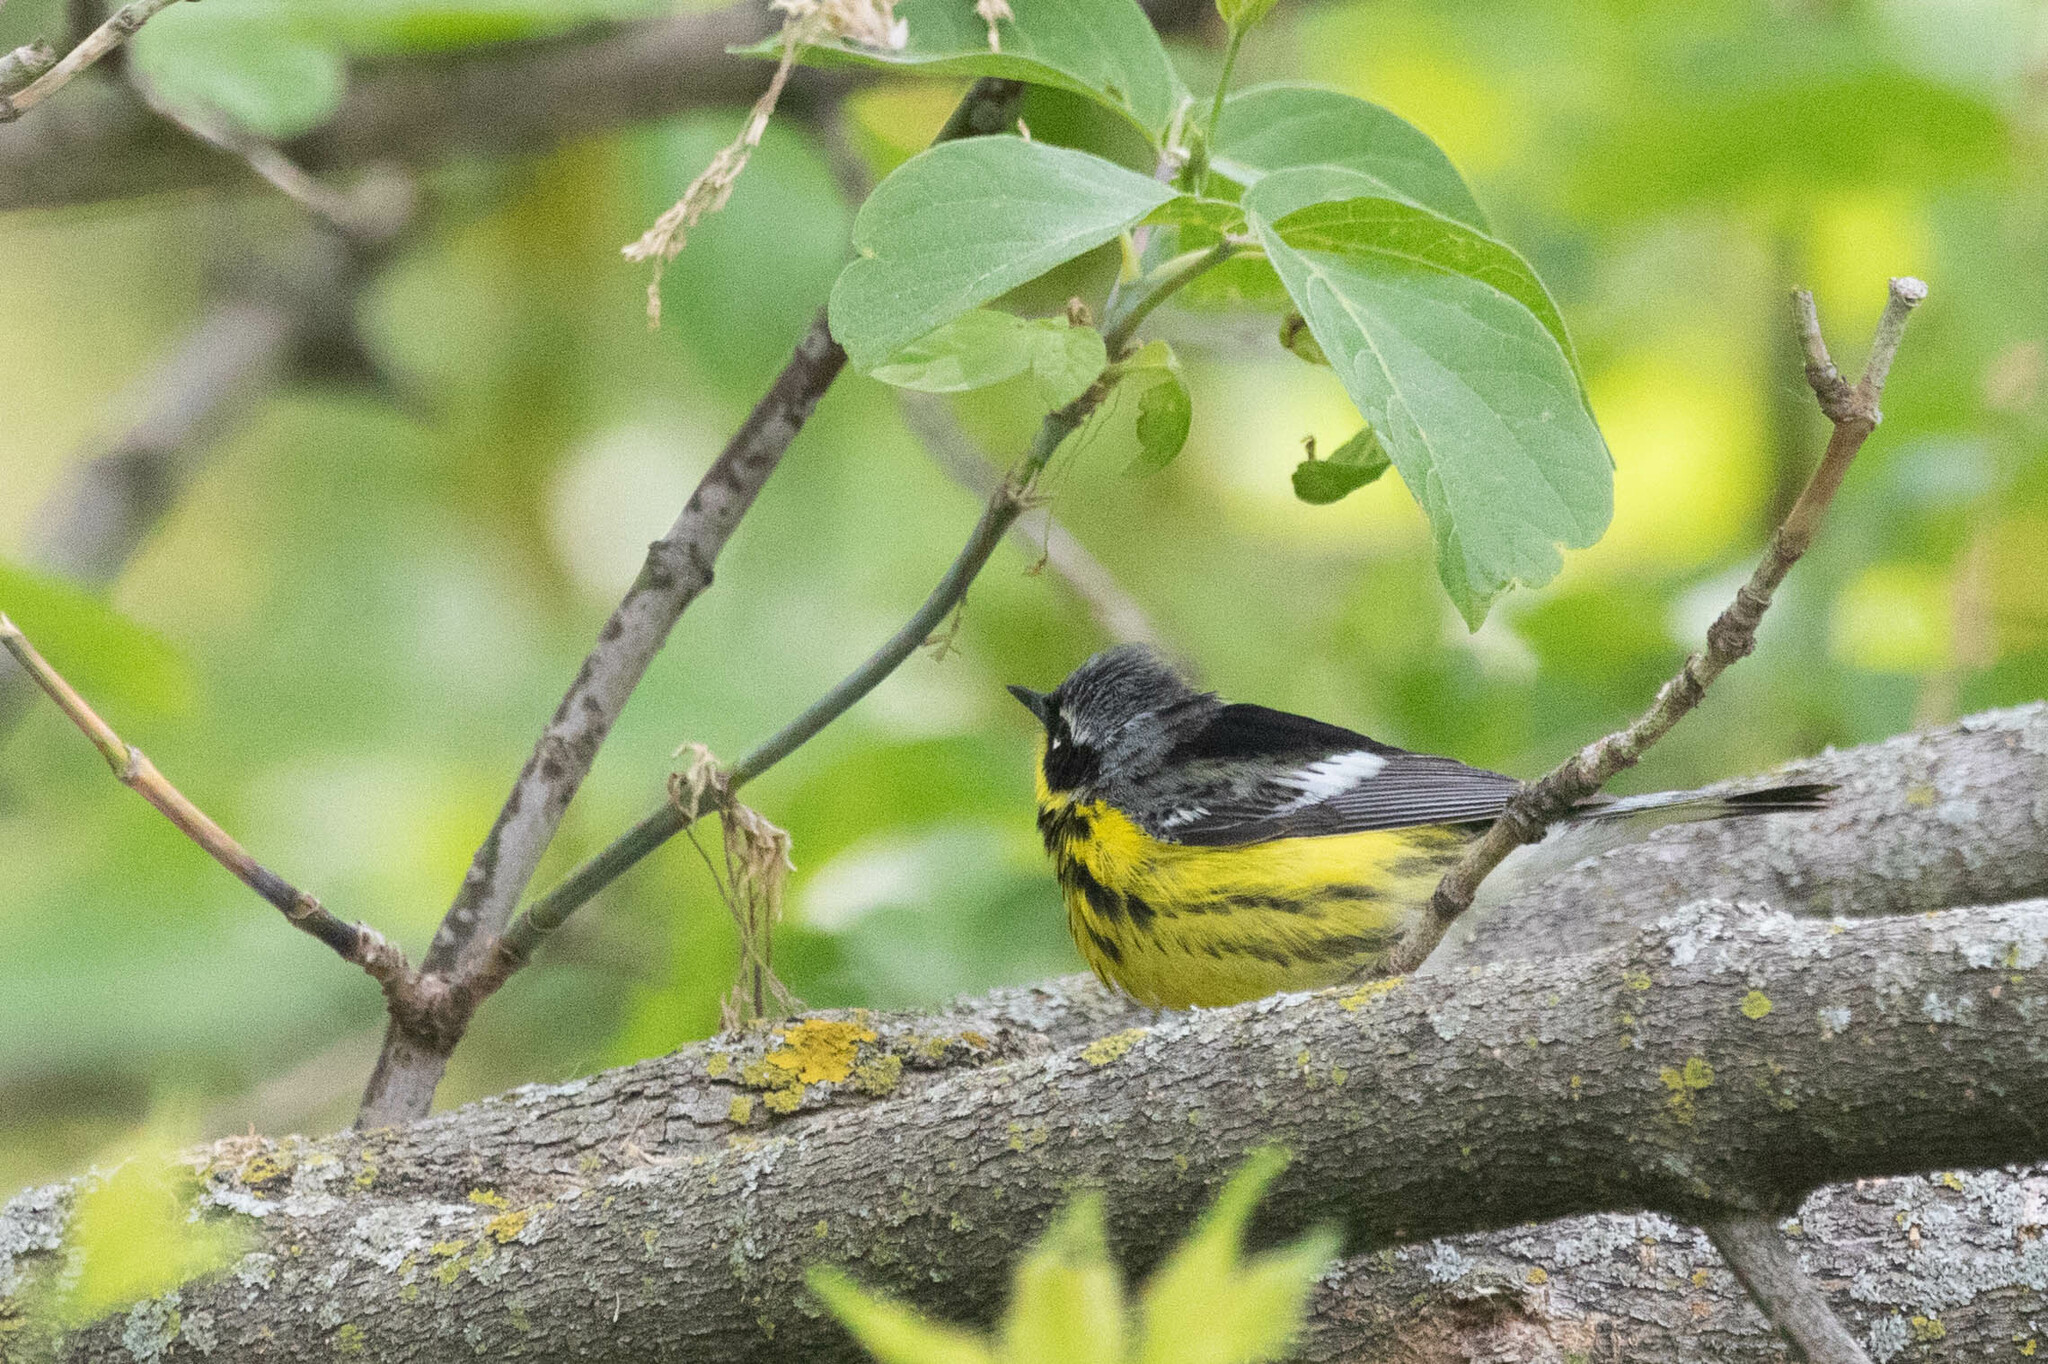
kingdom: Animalia
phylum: Chordata
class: Aves
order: Passeriformes
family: Parulidae
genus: Setophaga
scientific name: Setophaga magnolia
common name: Magnolia warbler
